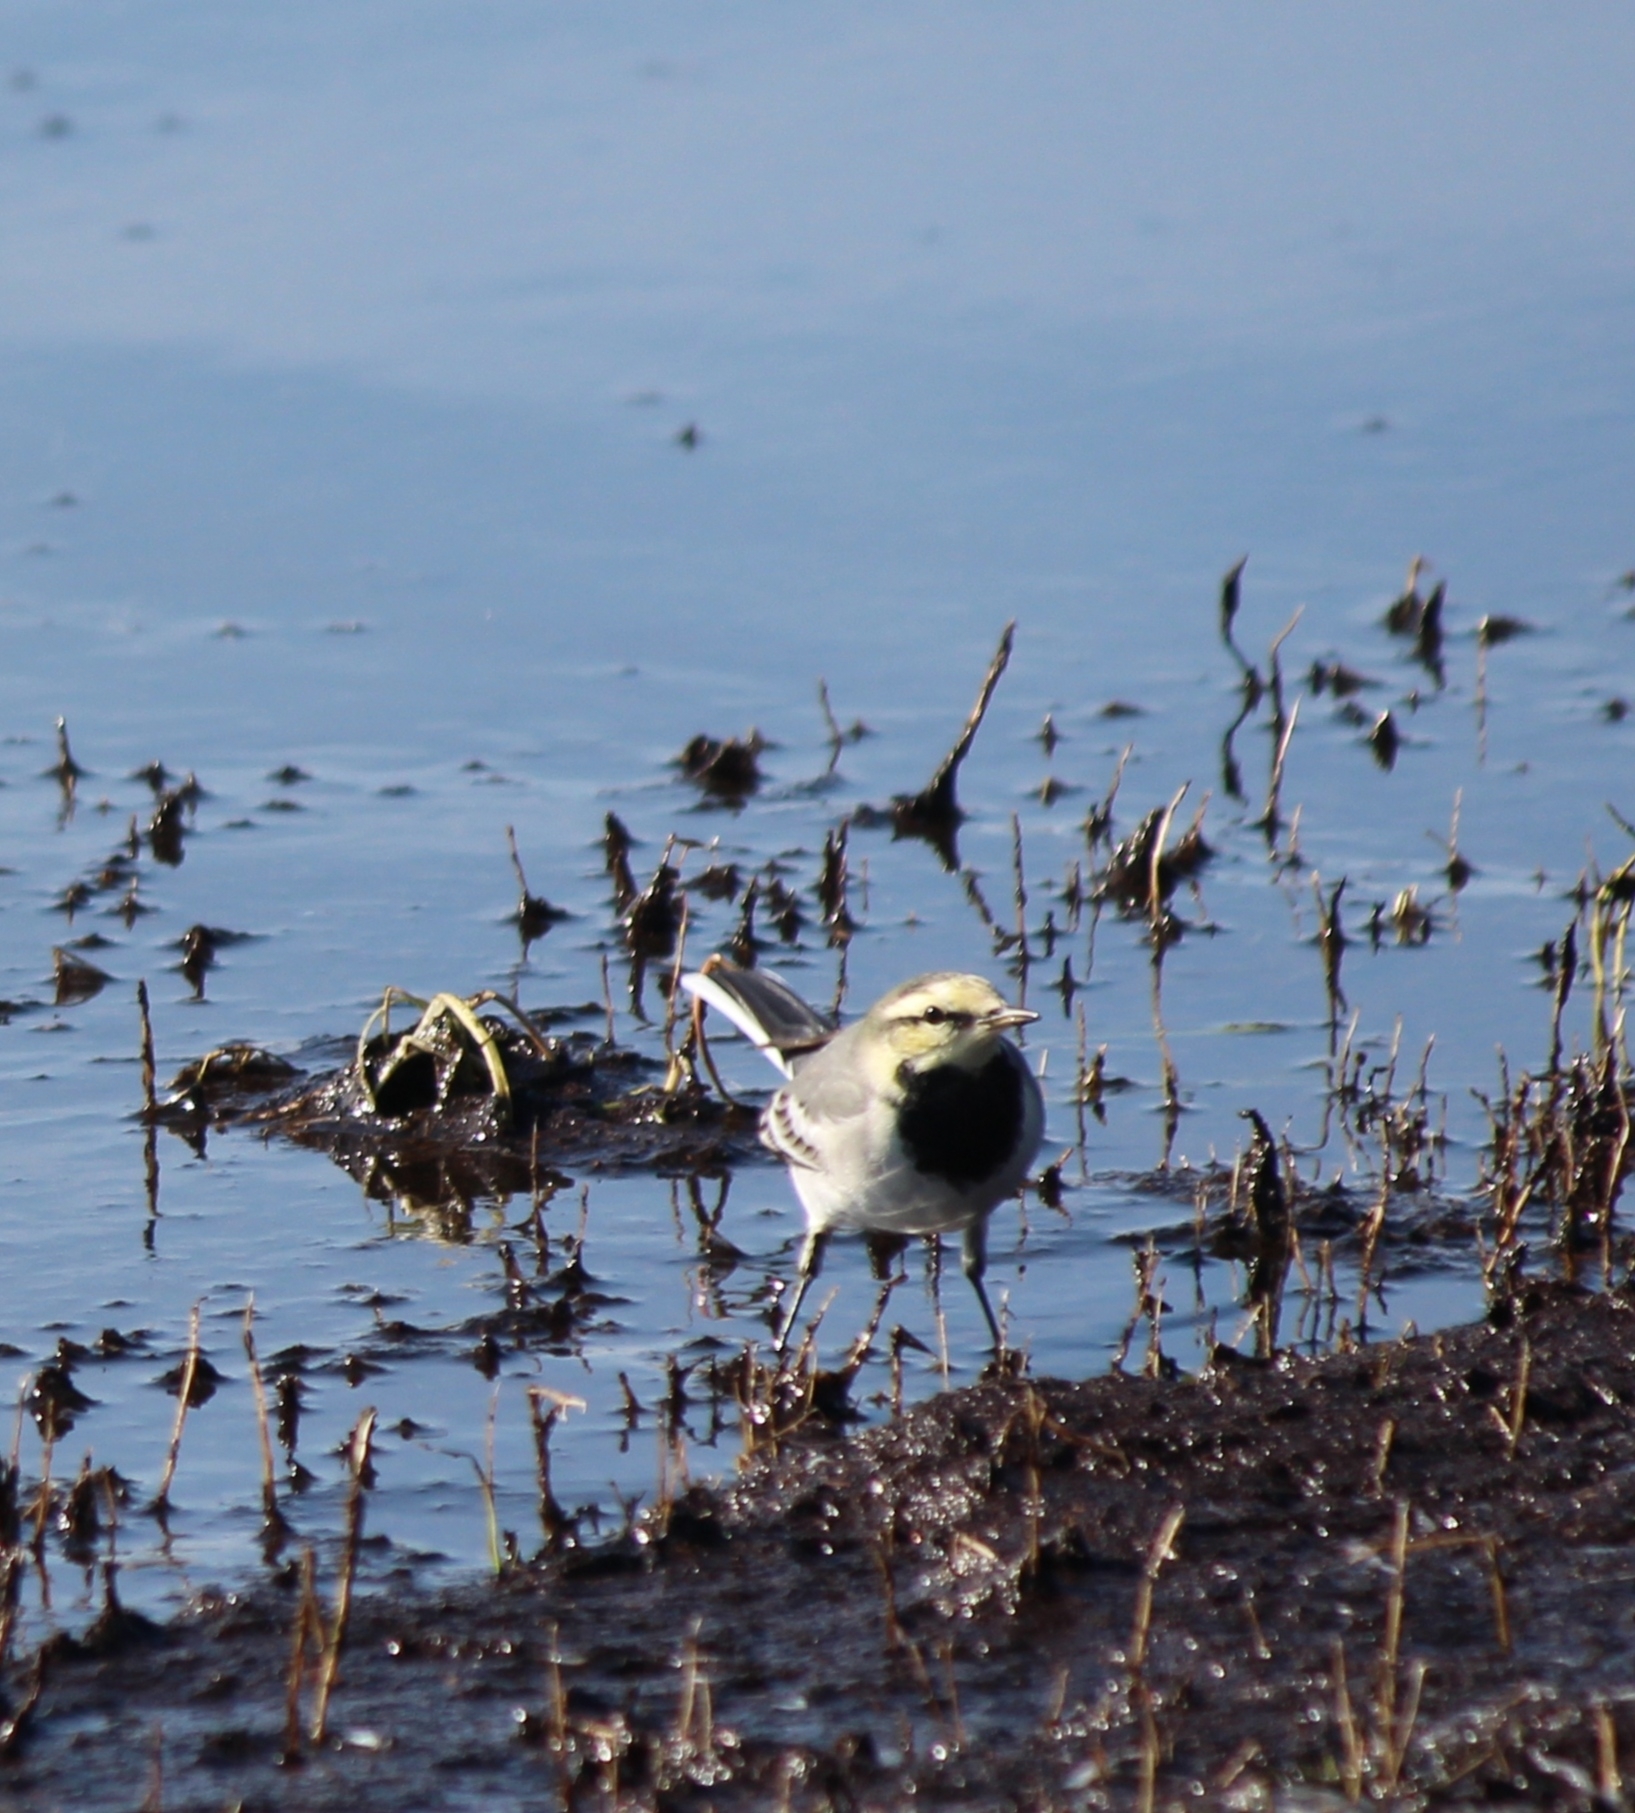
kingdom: Animalia
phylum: Chordata
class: Aves
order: Passeriformes
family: Motacillidae
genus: Motacilla
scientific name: Motacilla alba
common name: White wagtail
